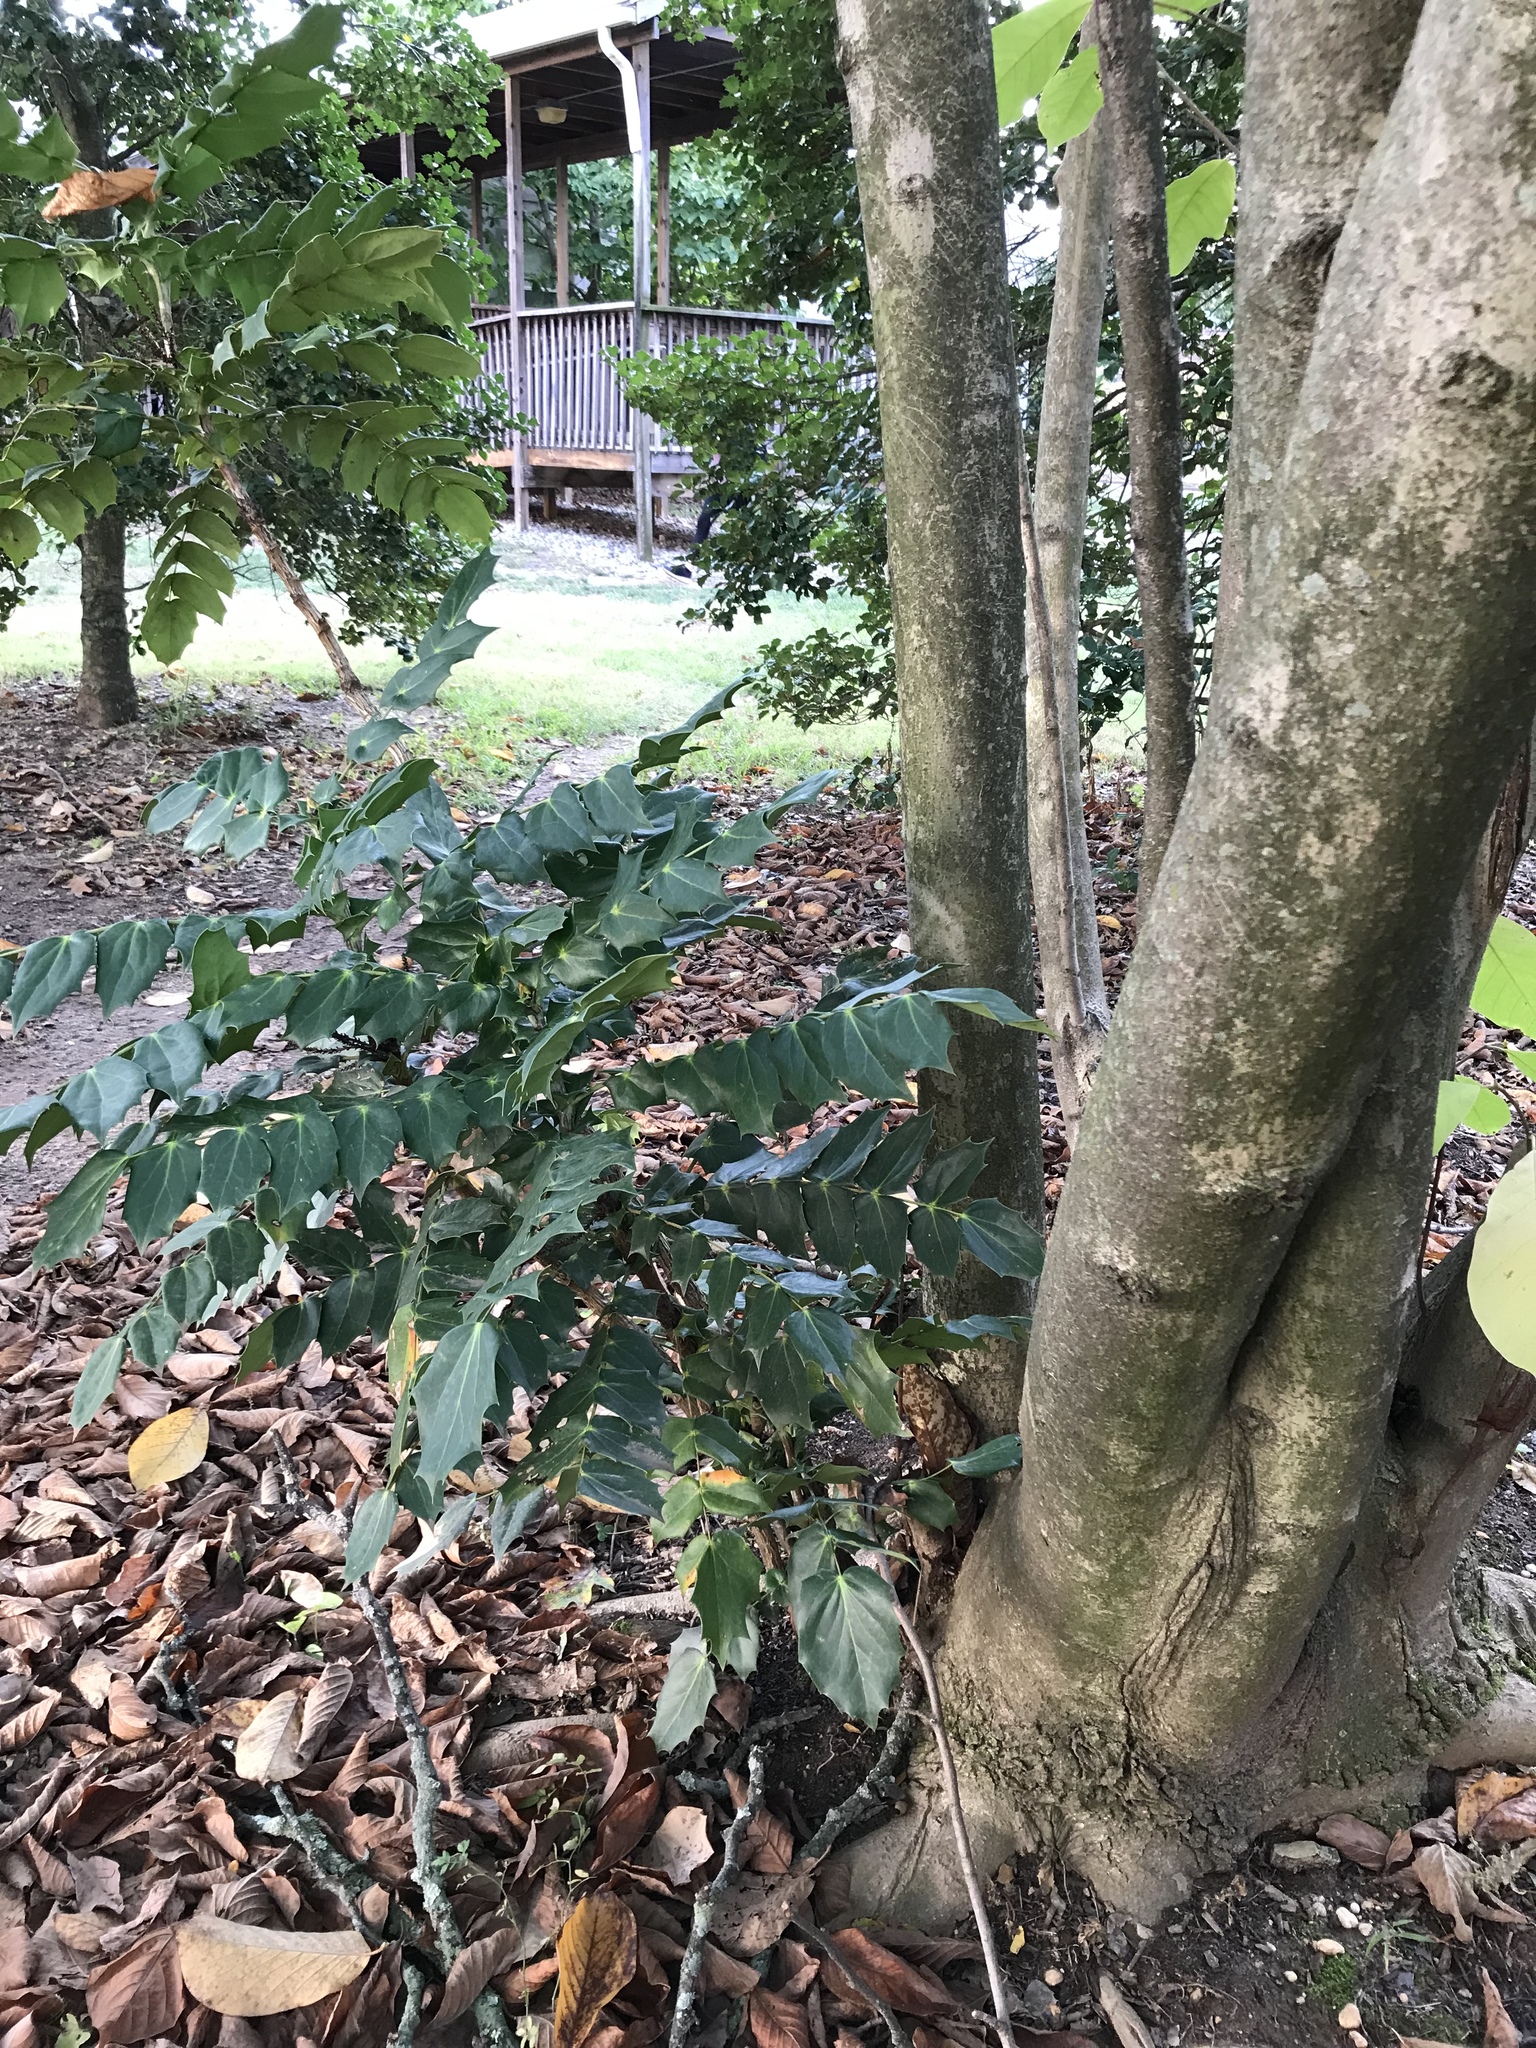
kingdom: Plantae
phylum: Tracheophyta
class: Magnoliopsida
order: Ranunculales
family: Berberidaceae
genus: Mahonia
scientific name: Mahonia bealei
